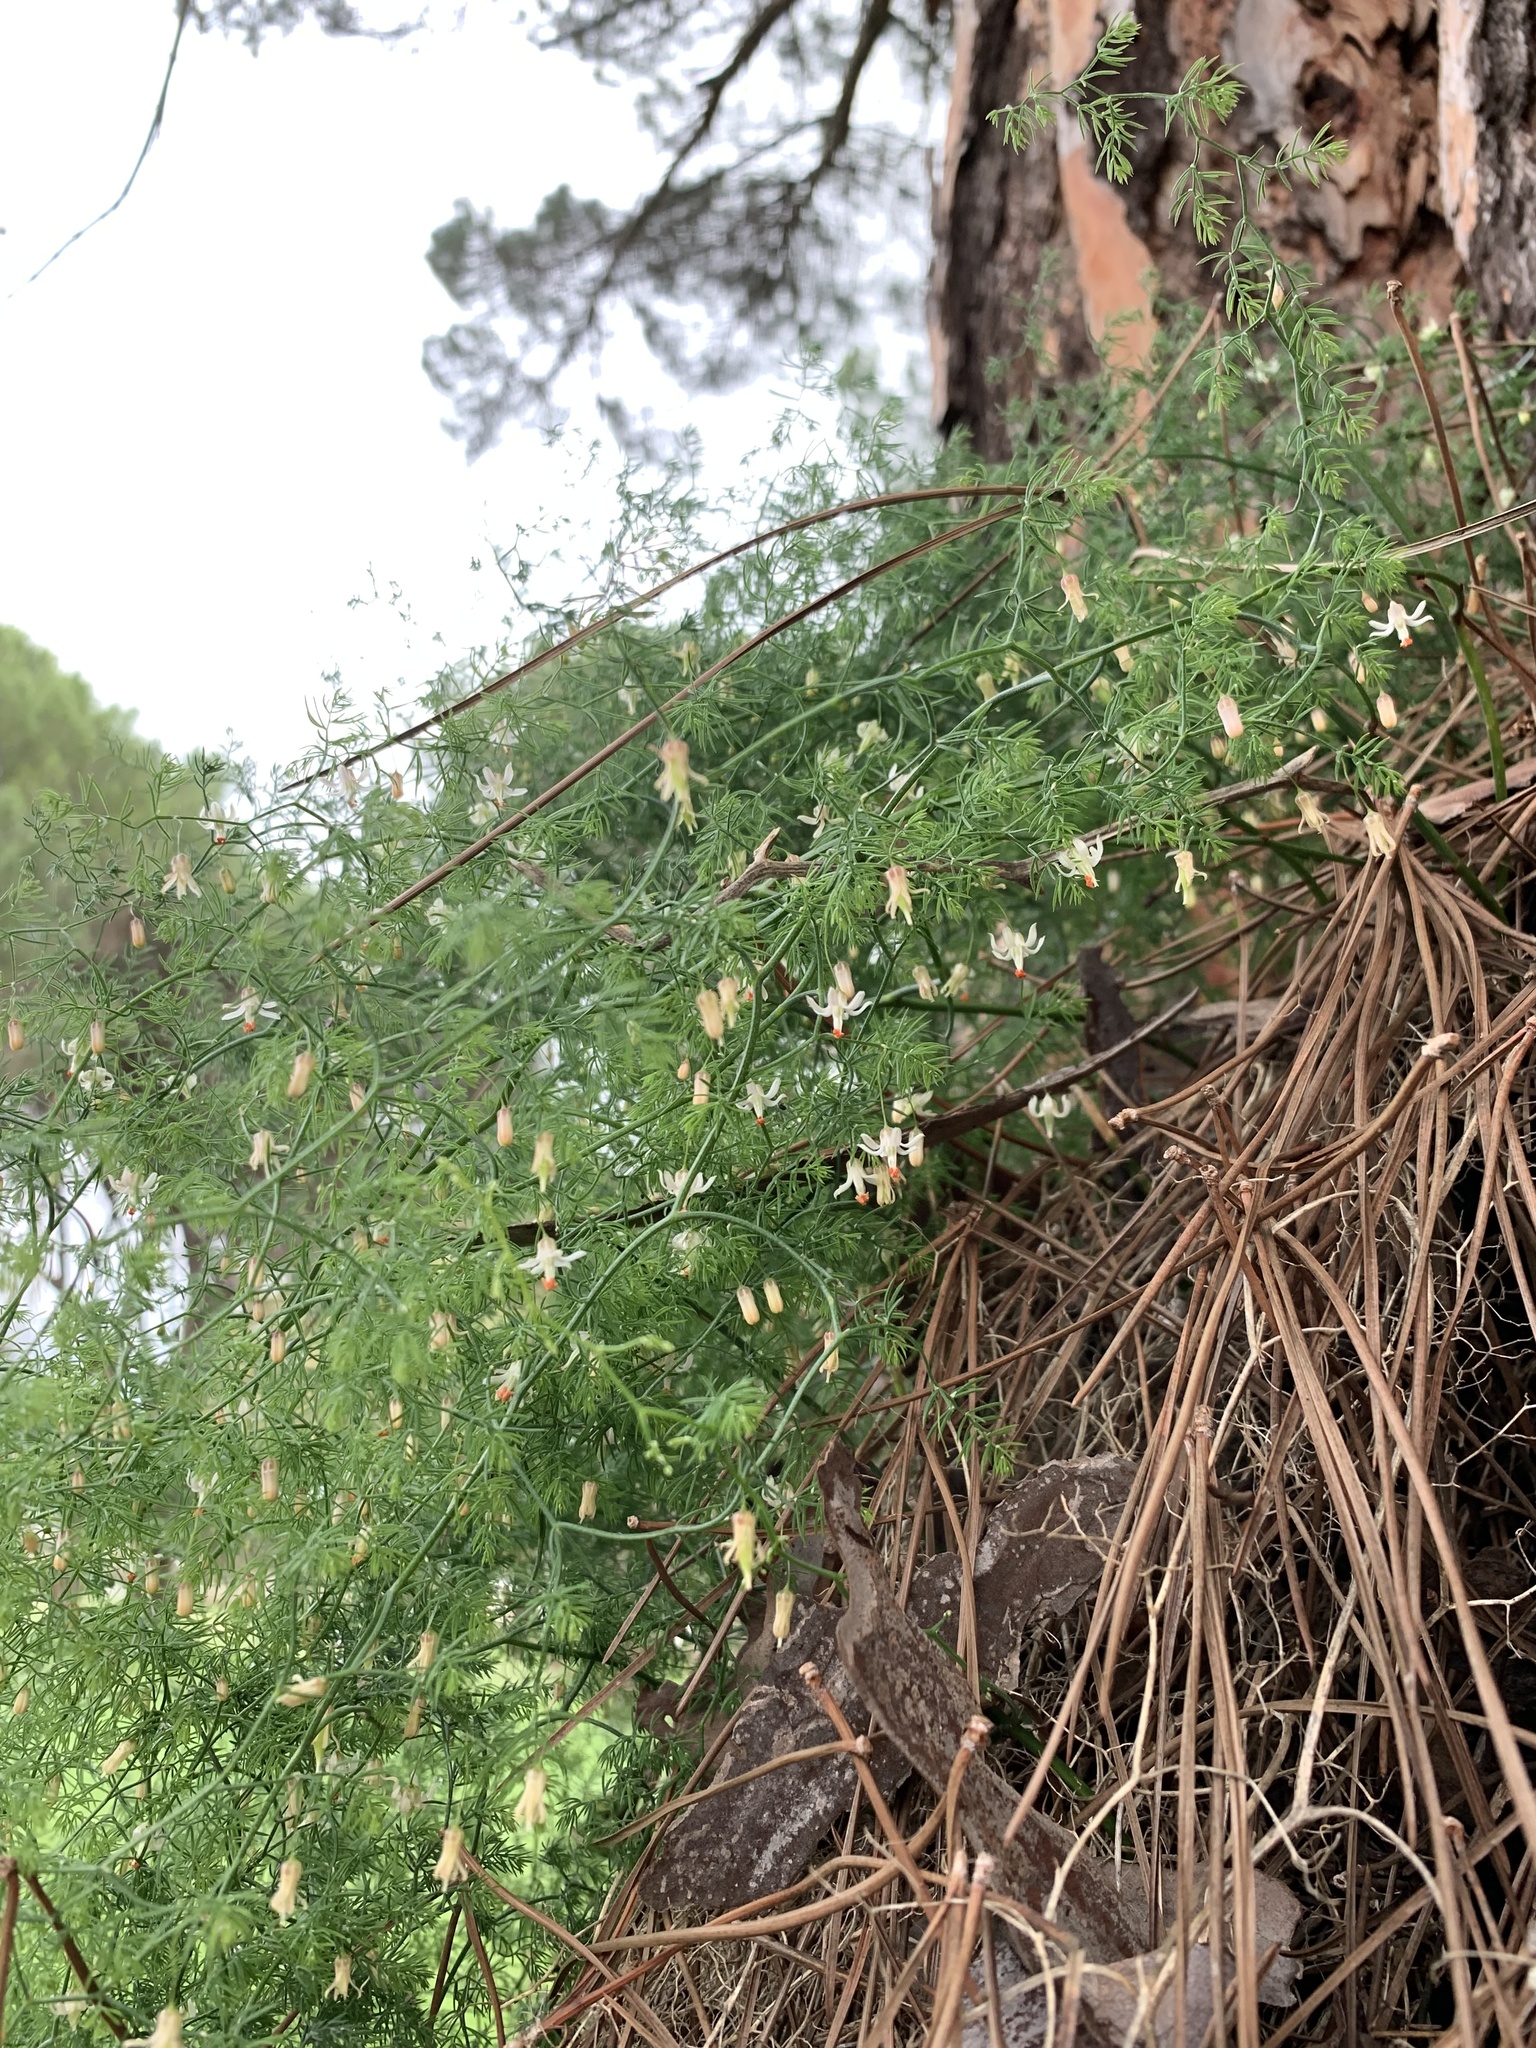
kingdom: Plantae
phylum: Tracheophyta
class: Liliopsida
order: Asparagales
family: Asparagaceae
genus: Asparagus
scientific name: Asparagus declinatus
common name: Bridal-creeper
